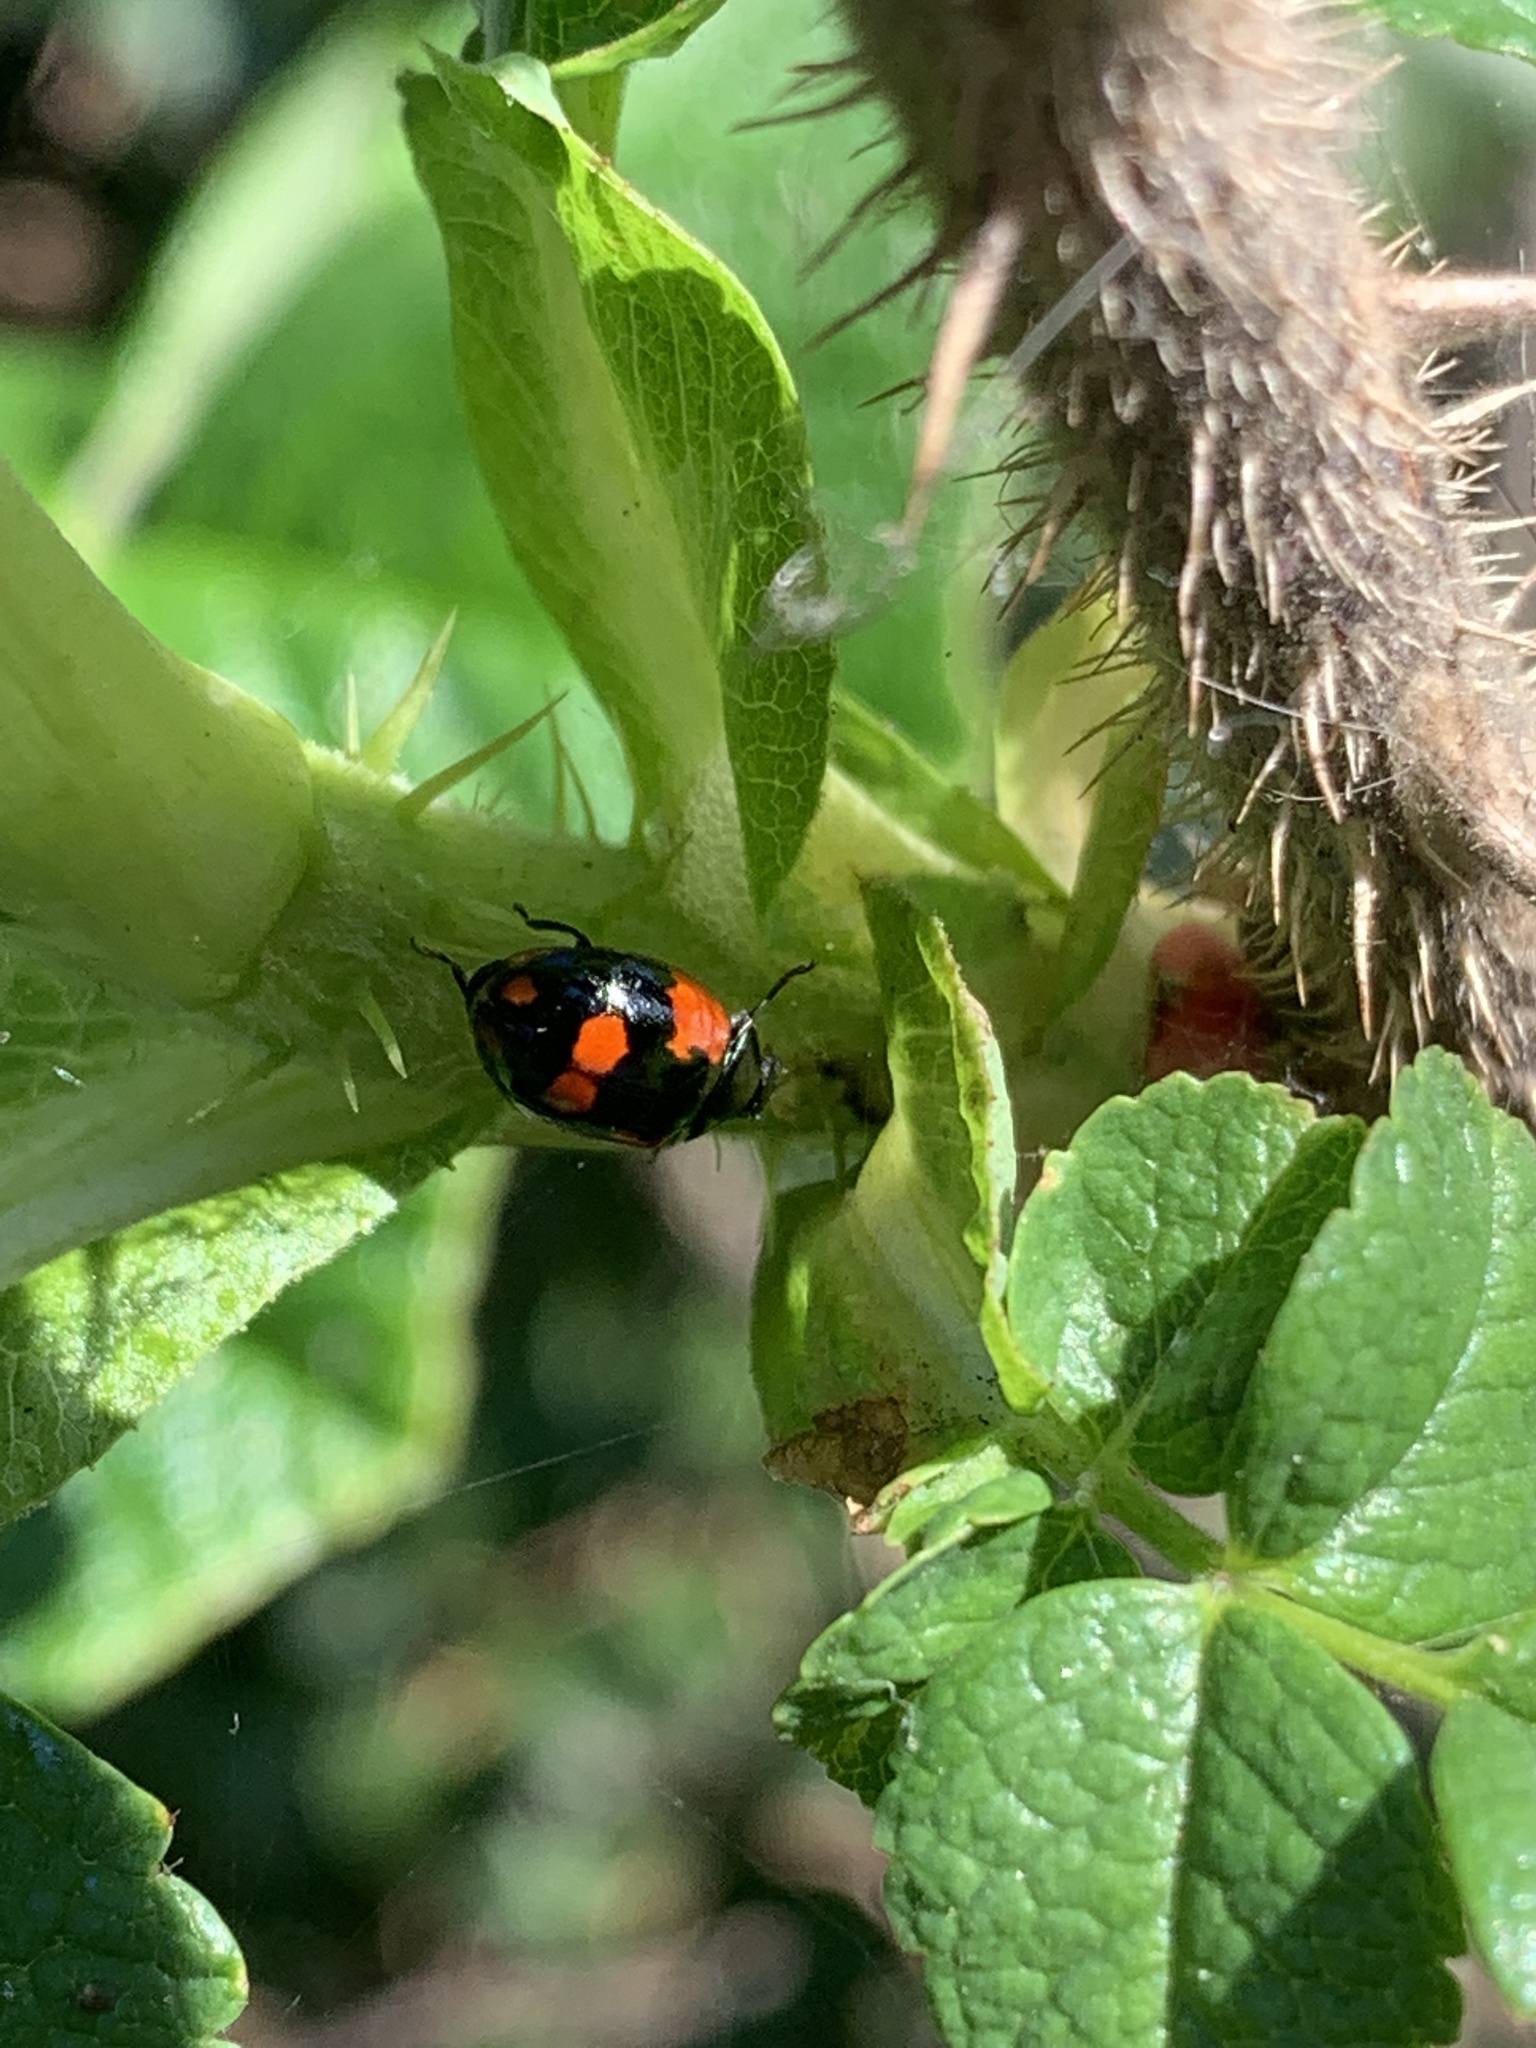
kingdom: Animalia
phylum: Arthropoda
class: Insecta
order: Coleoptera
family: Coccinellidae
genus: Adalia
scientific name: Adalia bipunctata
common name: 2-spot ladybird
